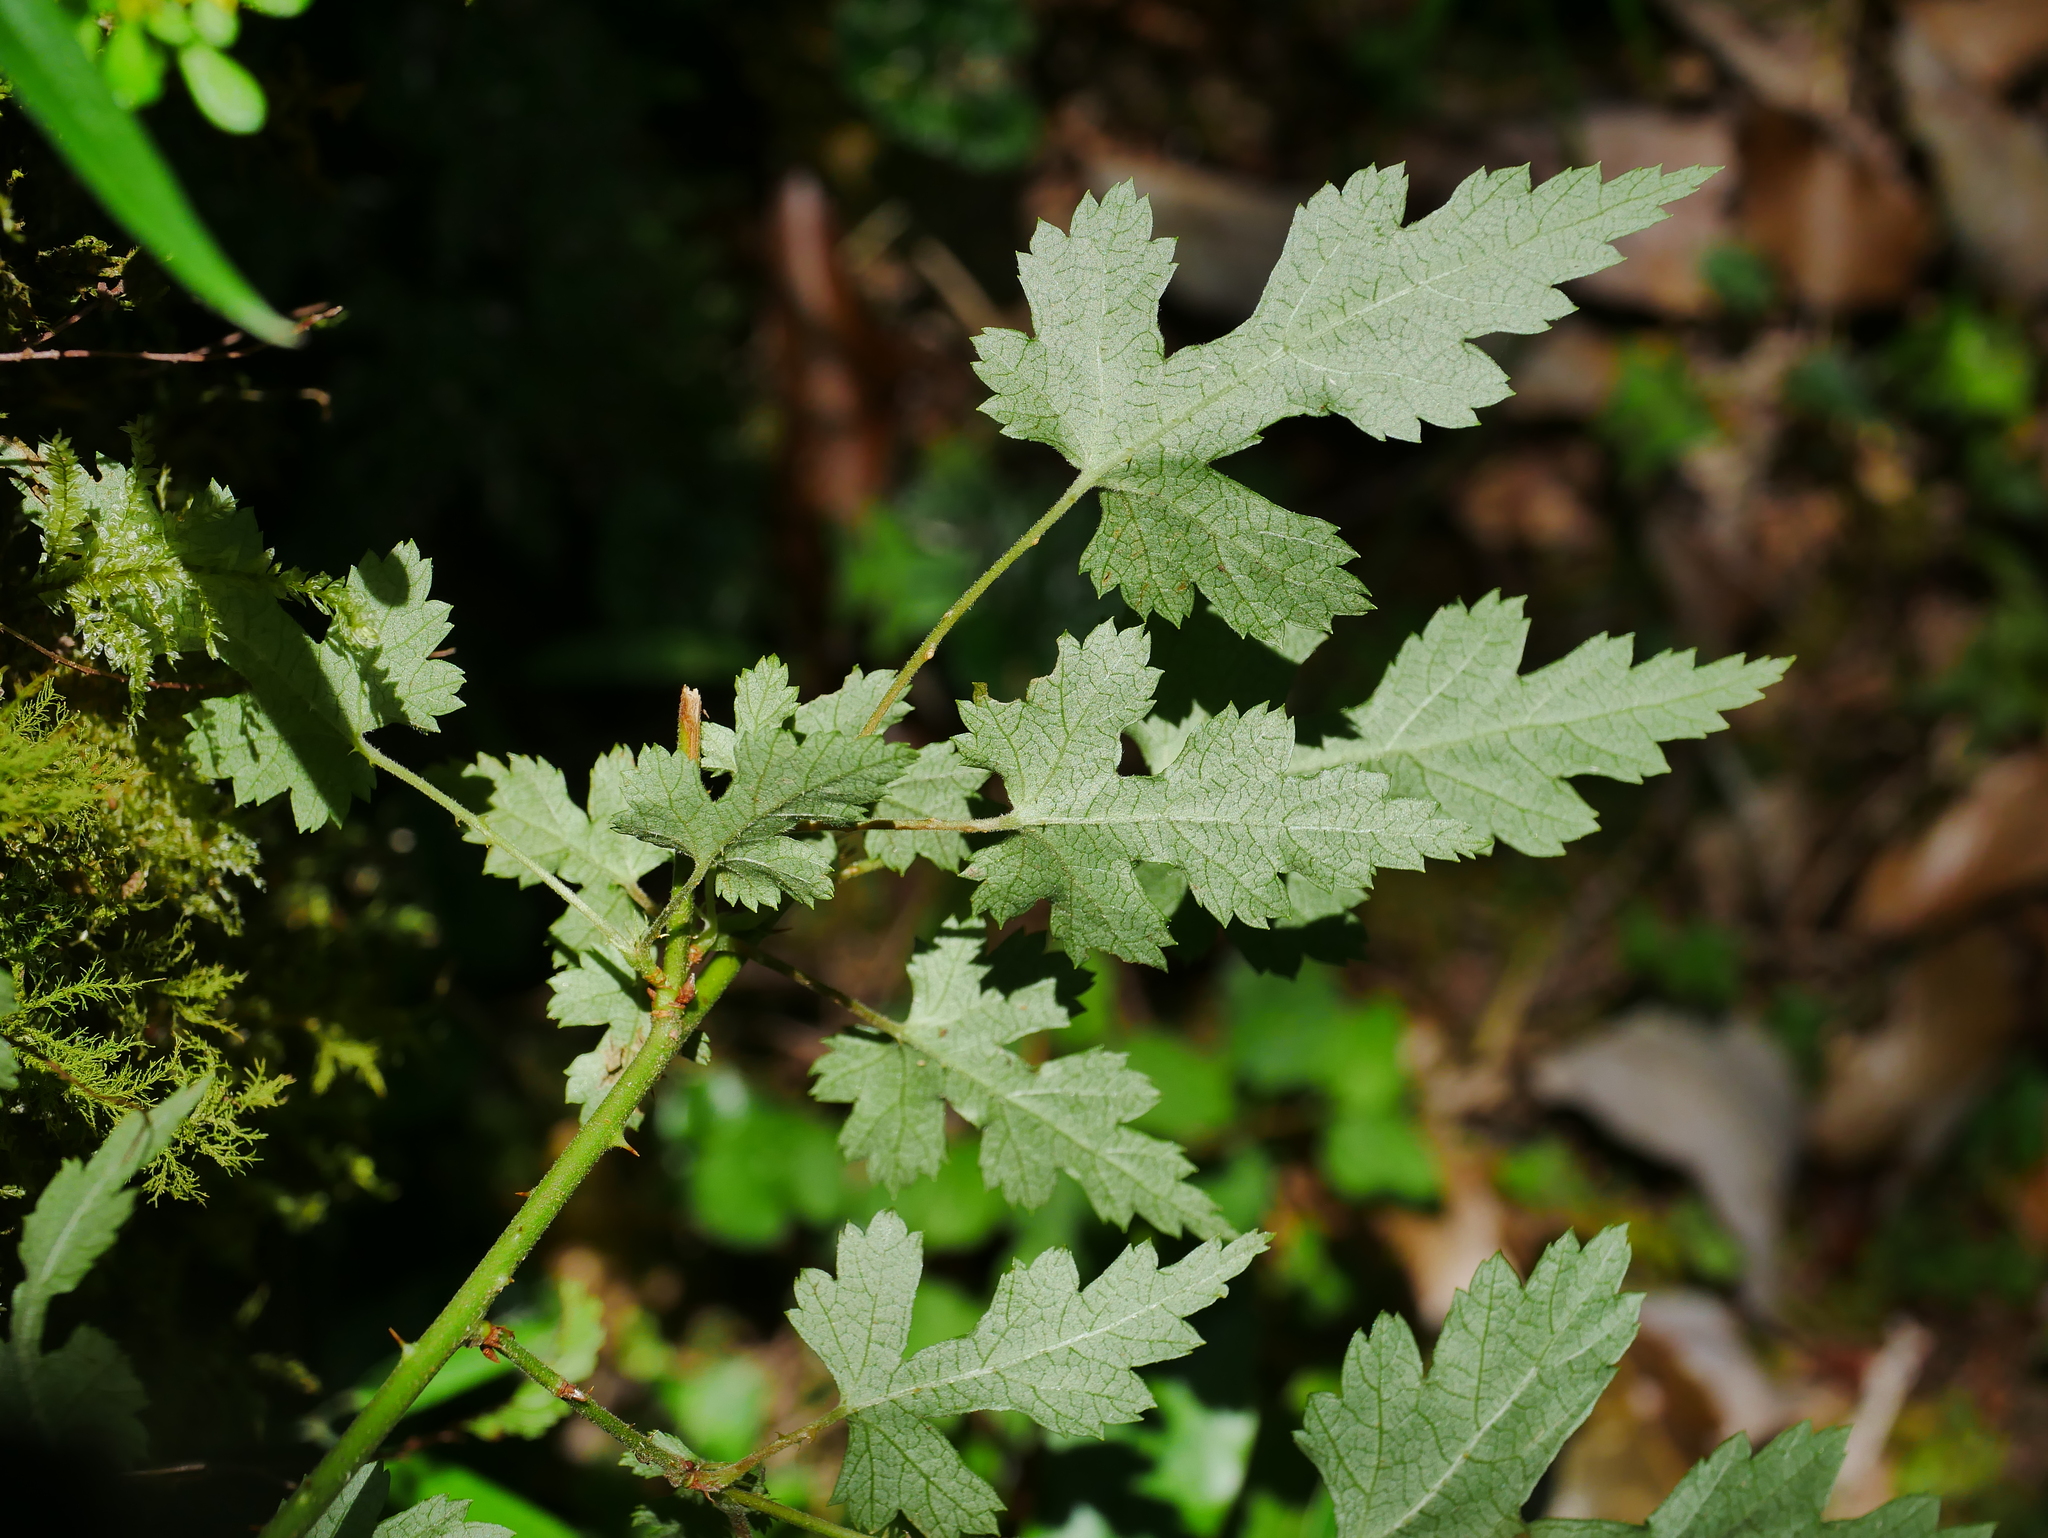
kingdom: Plantae
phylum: Tracheophyta
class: Magnoliopsida
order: Rosales
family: Rosaceae
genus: Rubus
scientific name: Rubus taitoensis
